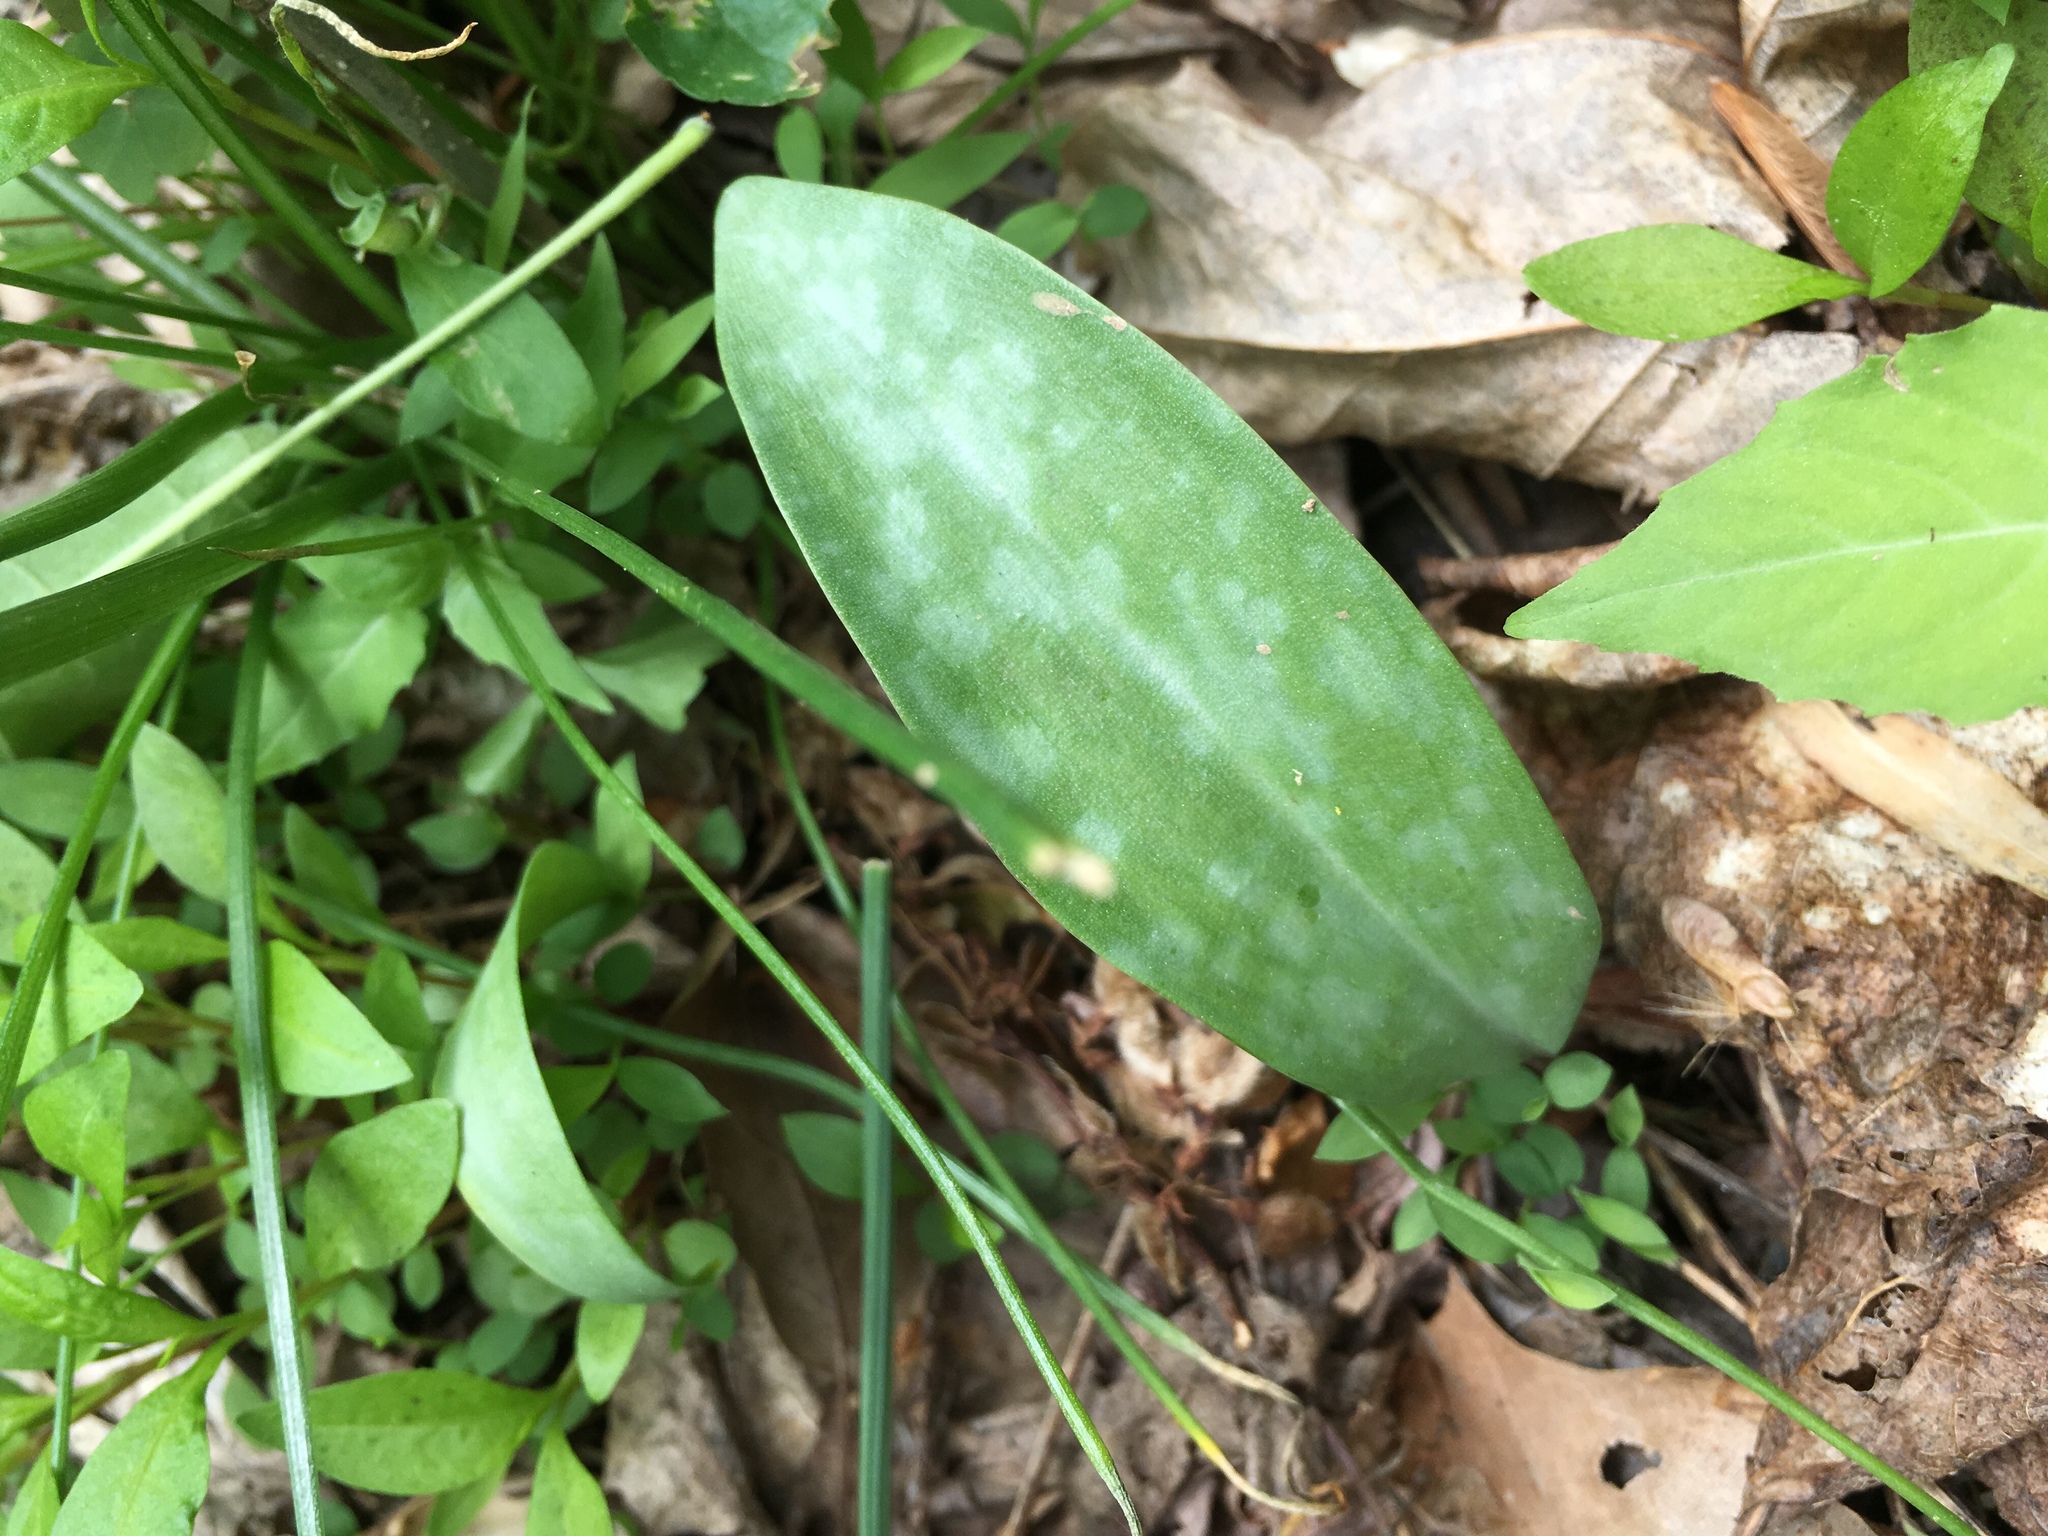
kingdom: Plantae
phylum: Tracheophyta
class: Liliopsida
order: Liliales
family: Liliaceae
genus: Erythronium
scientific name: Erythronium americanum
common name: Yellow adder's-tongue
